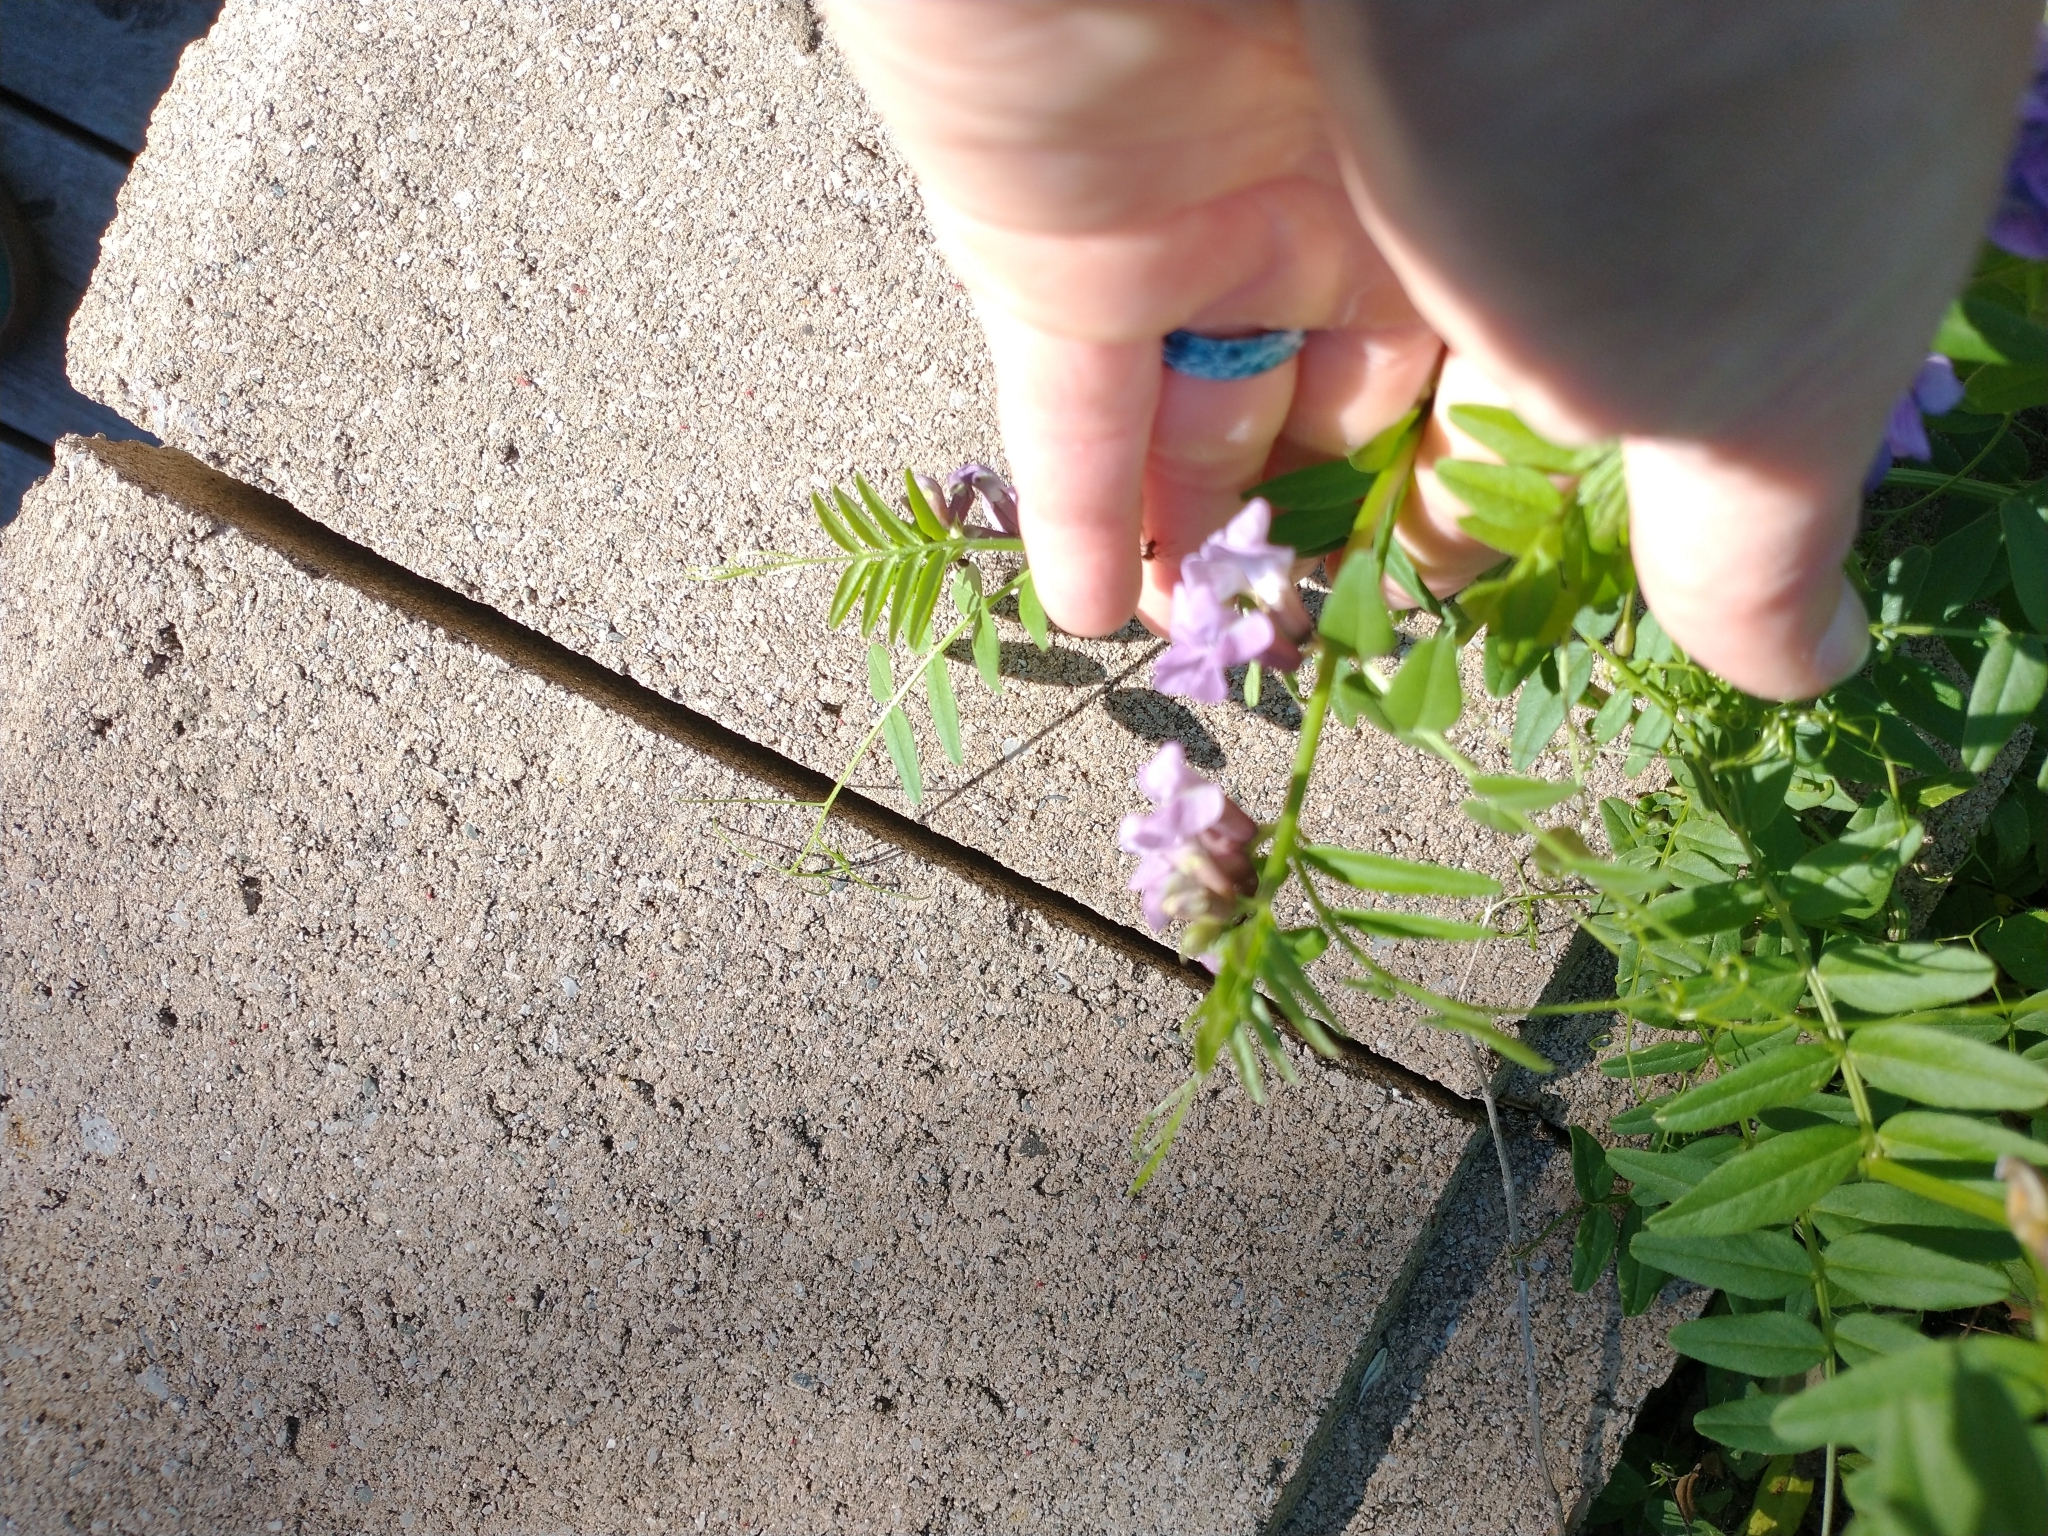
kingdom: Plantae
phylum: Tracheophyta
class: Magnoliopsida
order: Fabales
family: Fabaceae
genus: Vicia
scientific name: Vicia cracca
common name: Bird vetch
